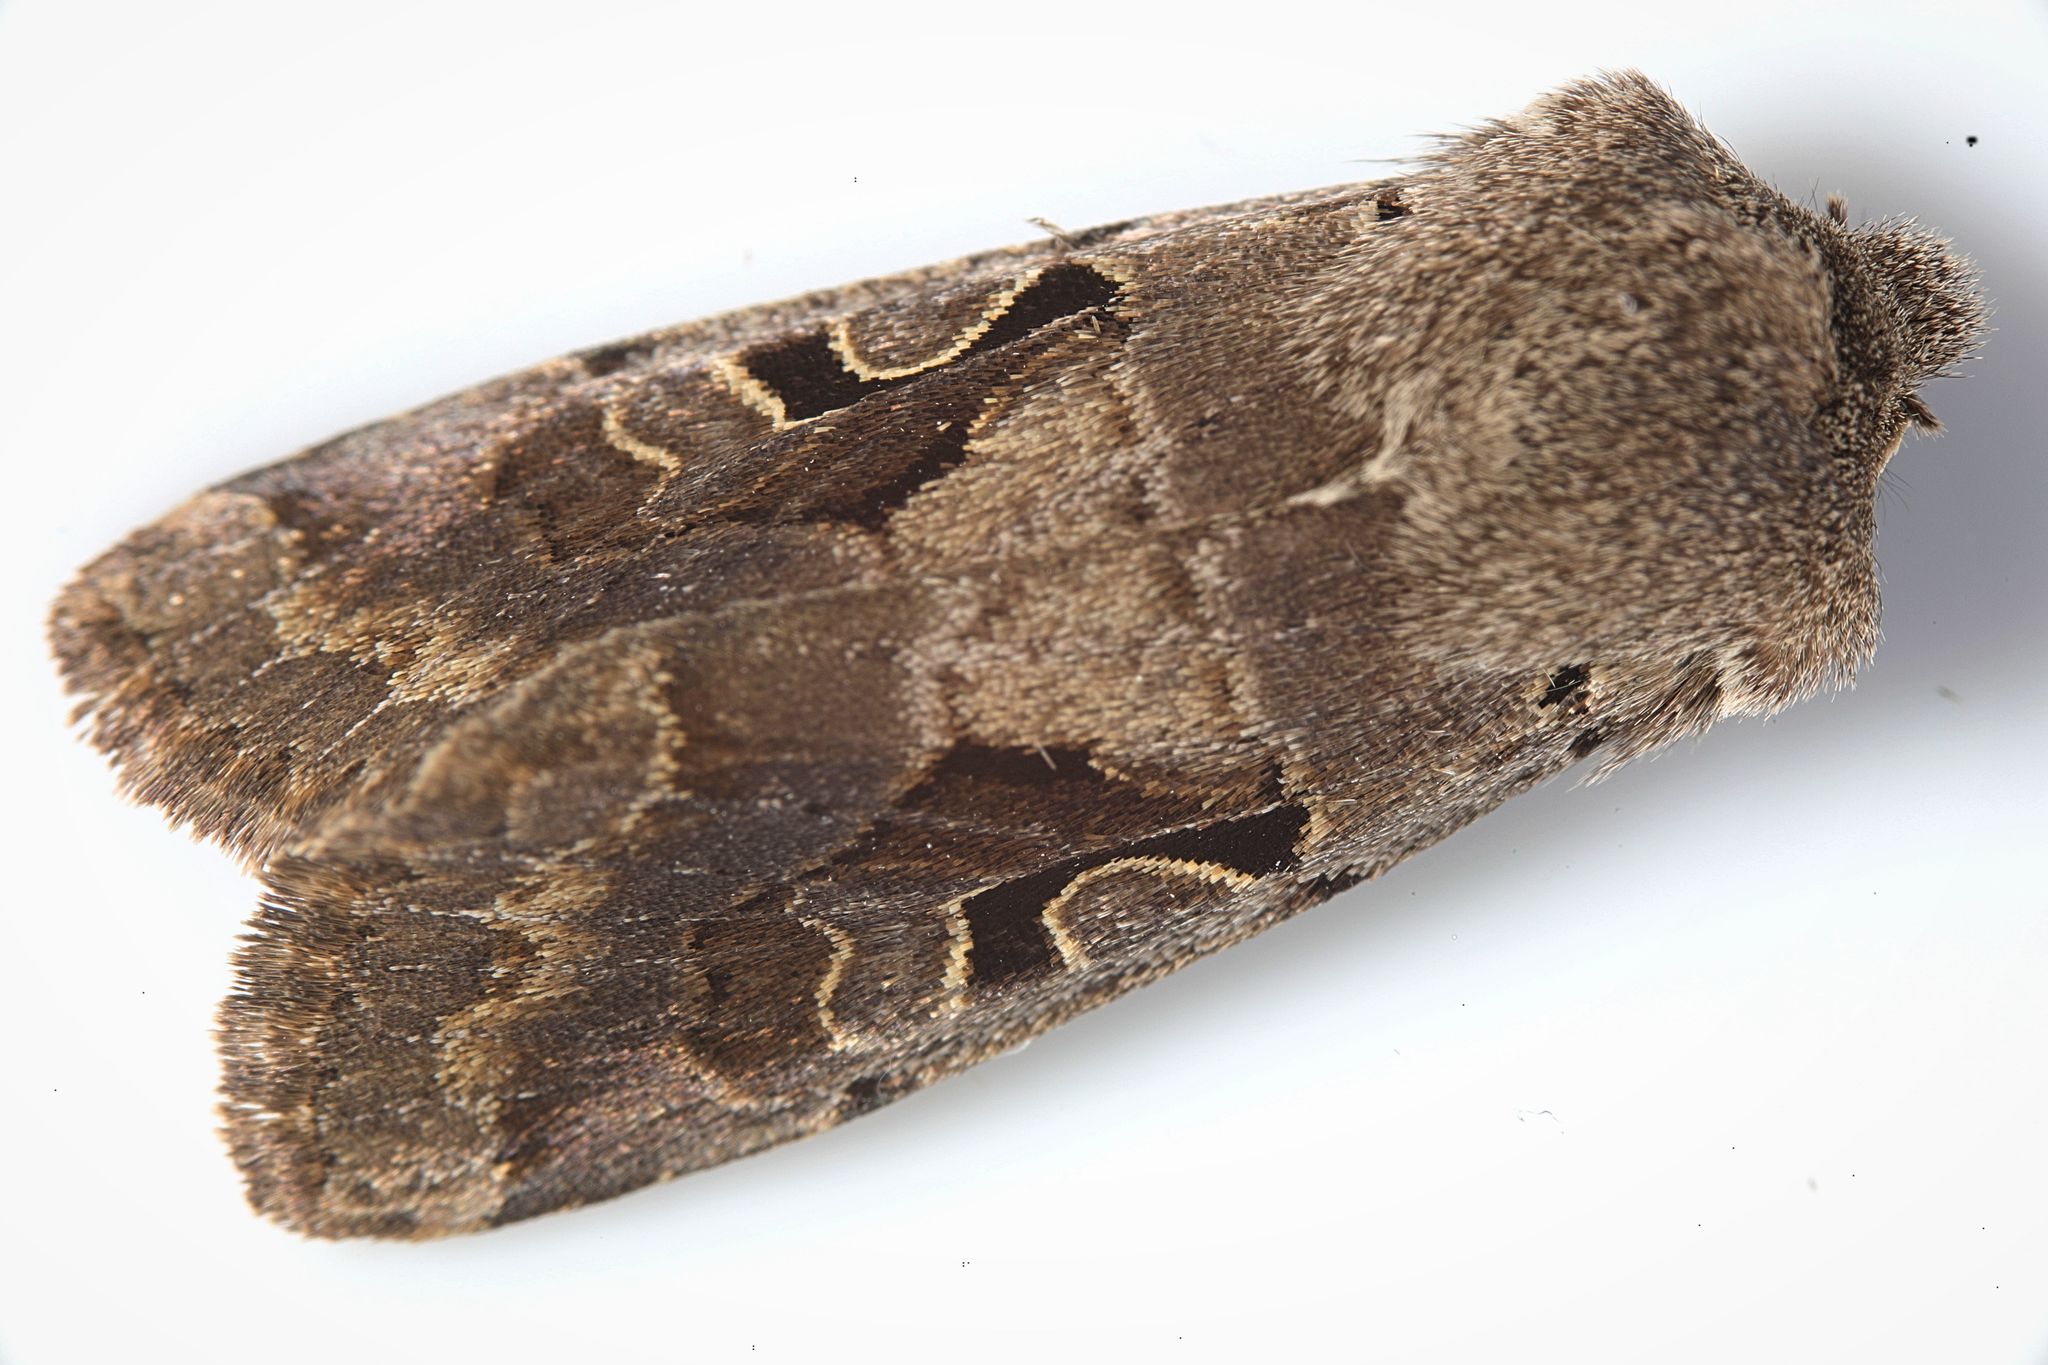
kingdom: Animalia
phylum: Arthropoda
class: Insecta
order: Lepidoptera
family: Noctuidae
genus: Orthosia
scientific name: Orthosia gothica
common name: Hebrew character
